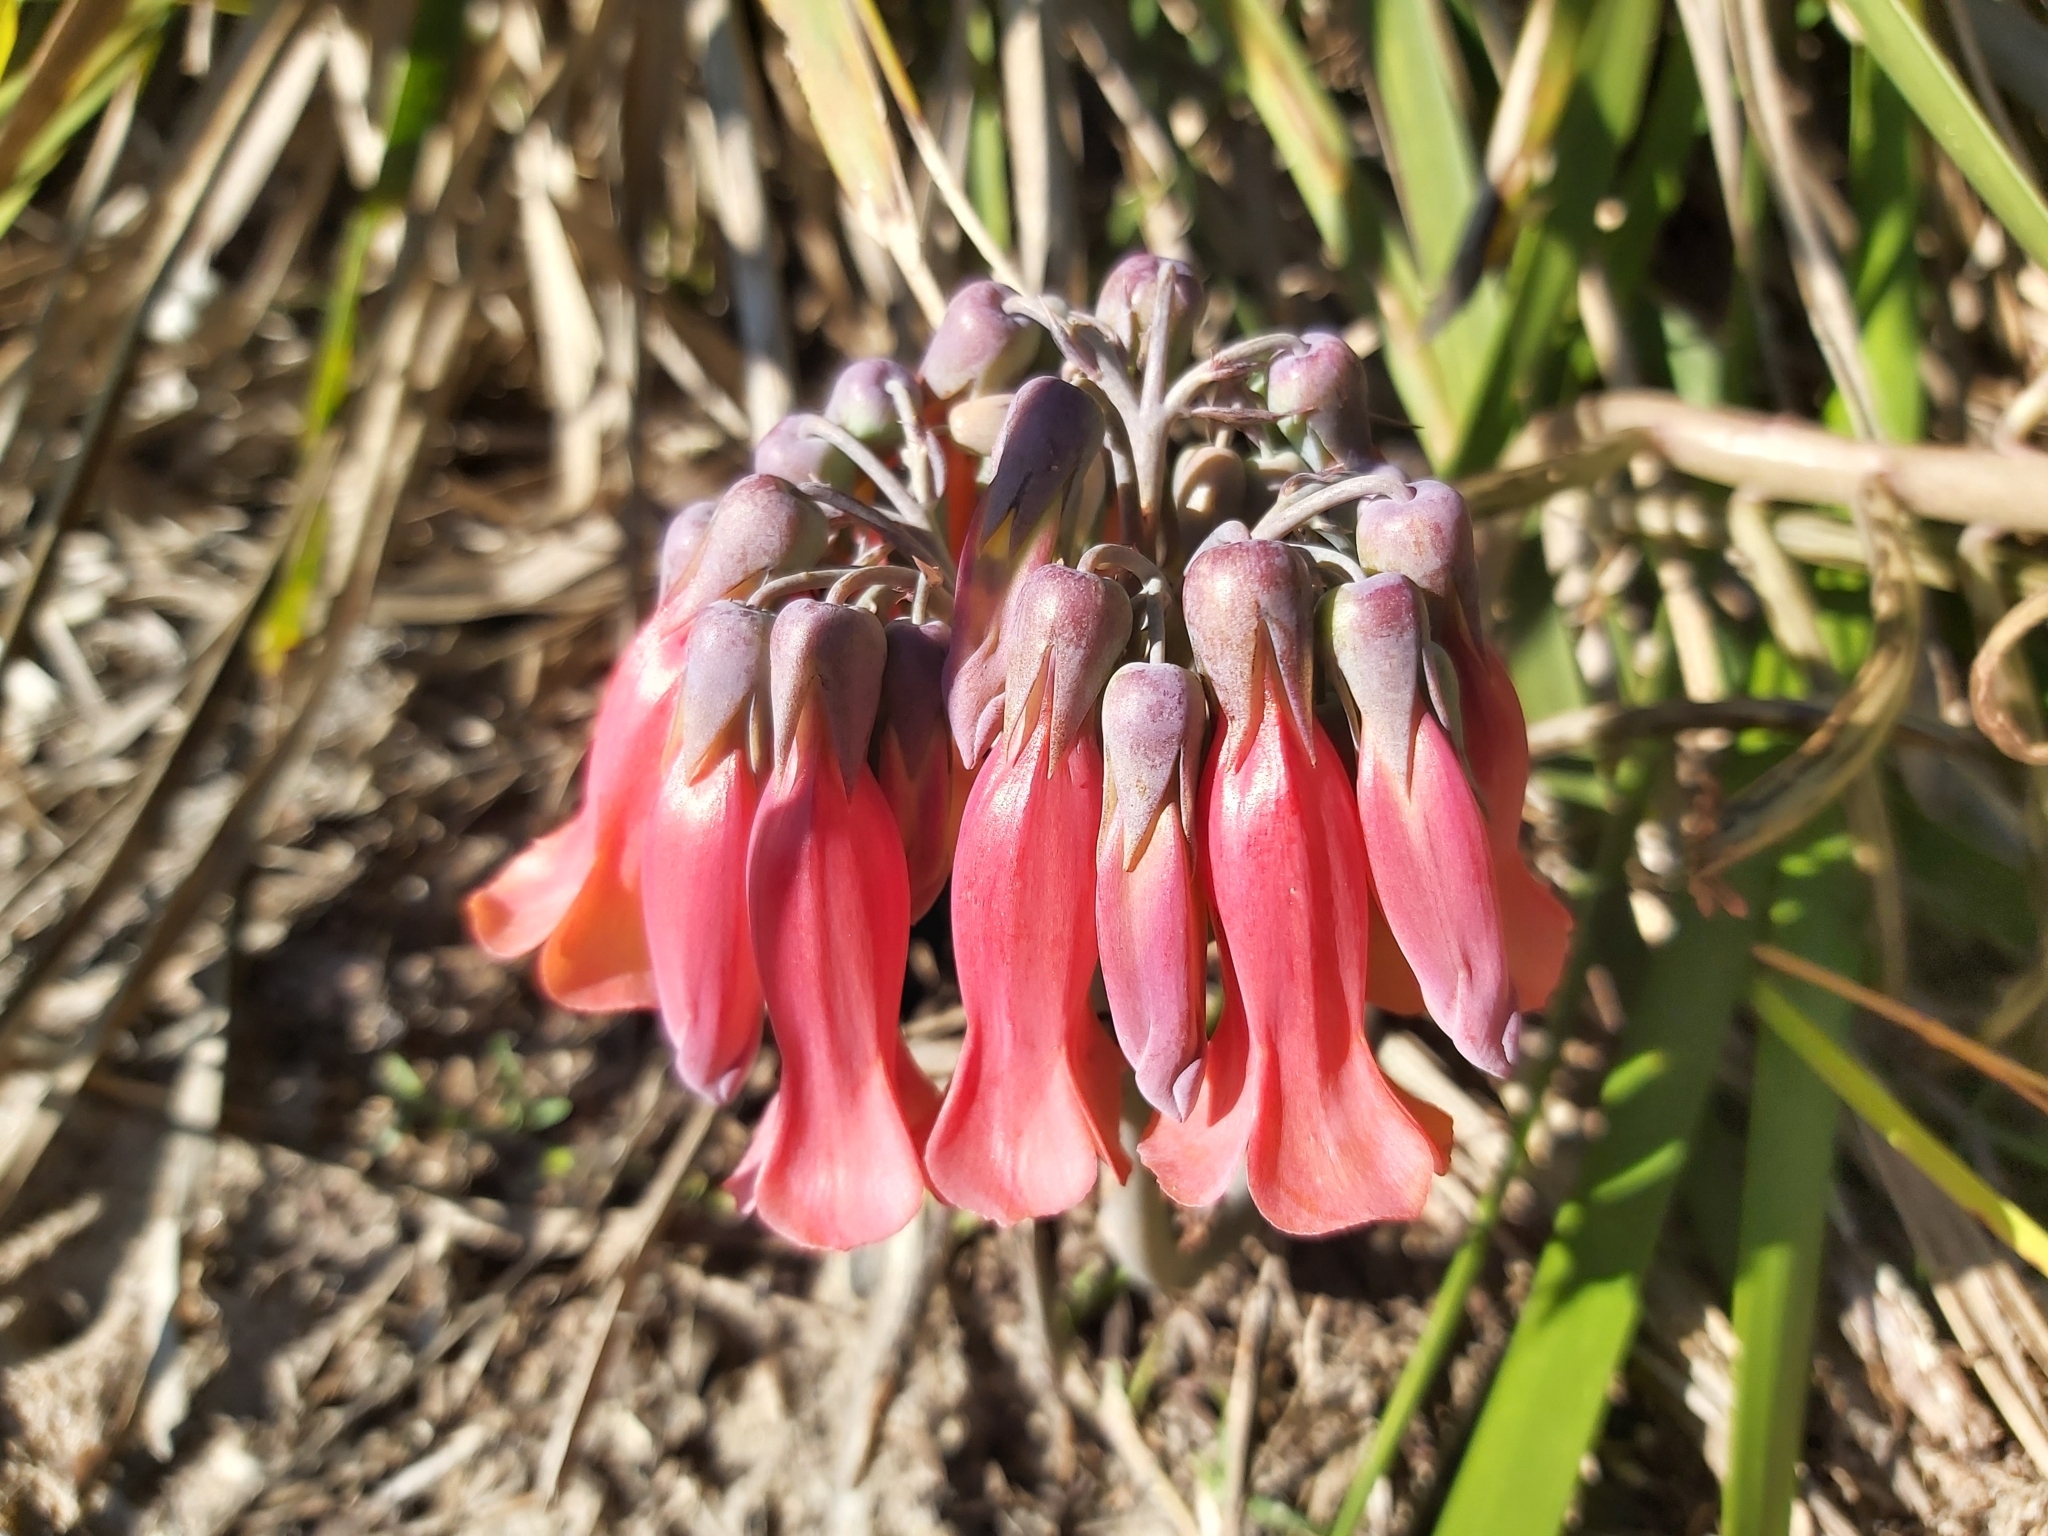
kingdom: Plantae
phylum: Tracheophyta
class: Magnoliopsida
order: Saxifragales
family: Crassulaceae
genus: Kalanchoe
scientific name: Kalanchoe delagoensis
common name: Chandelier plant
